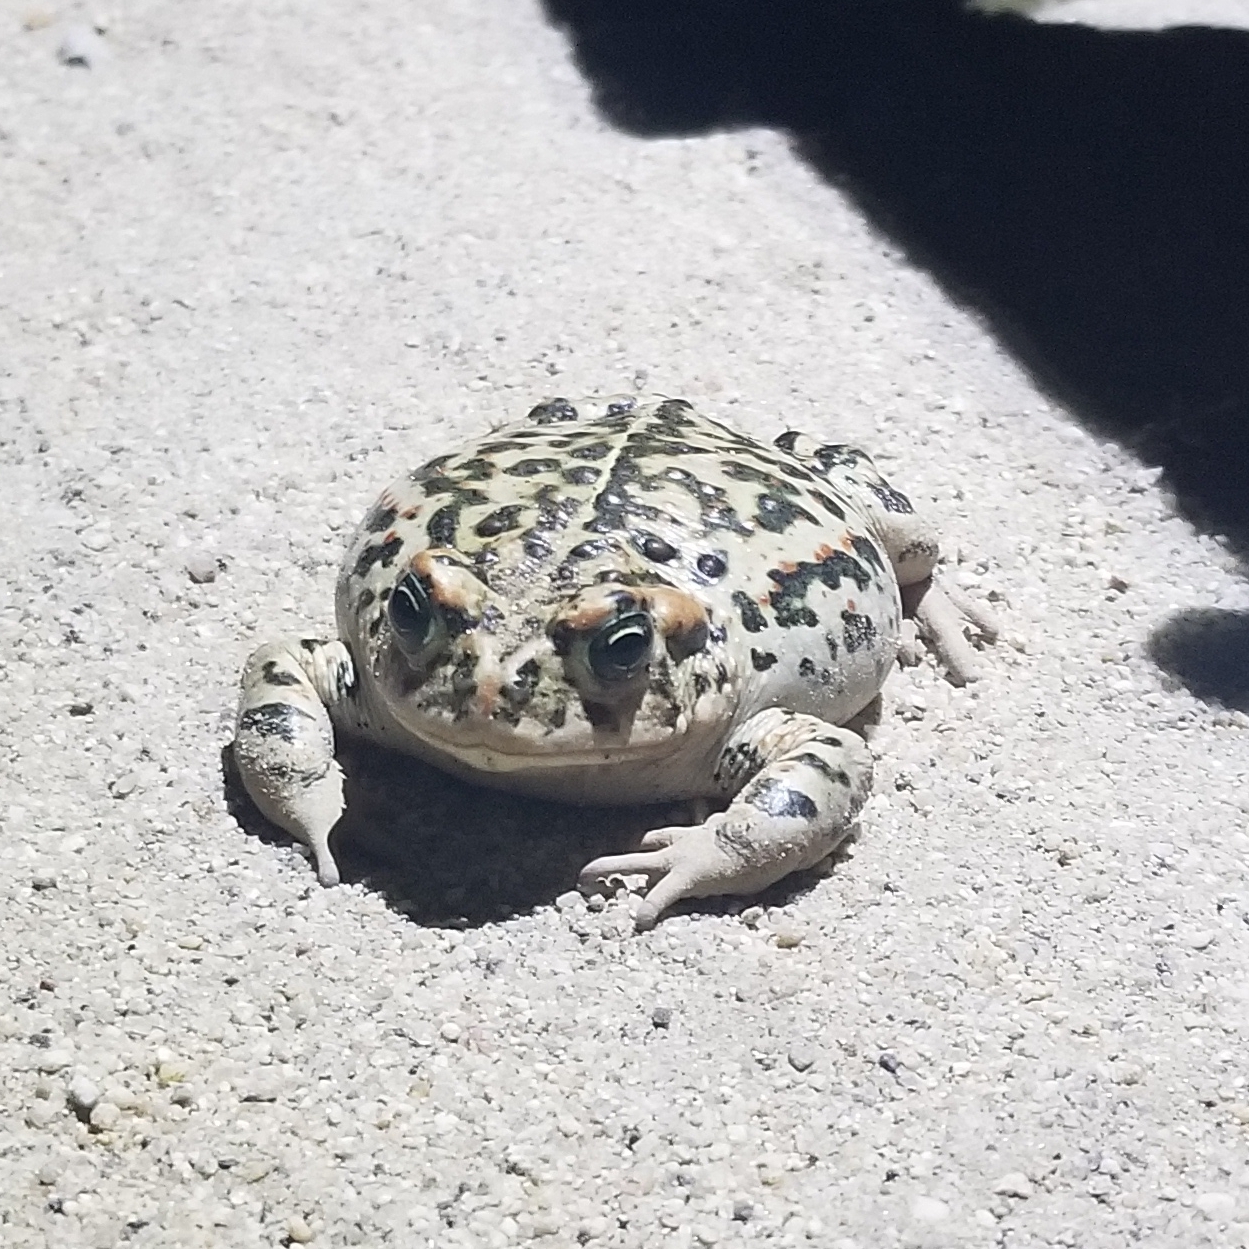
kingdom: Animalia
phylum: Chordata
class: Amphibia
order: Anura
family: Bufonidae
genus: Anaxyrus
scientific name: Anaxyrus boreas
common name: Western toad
